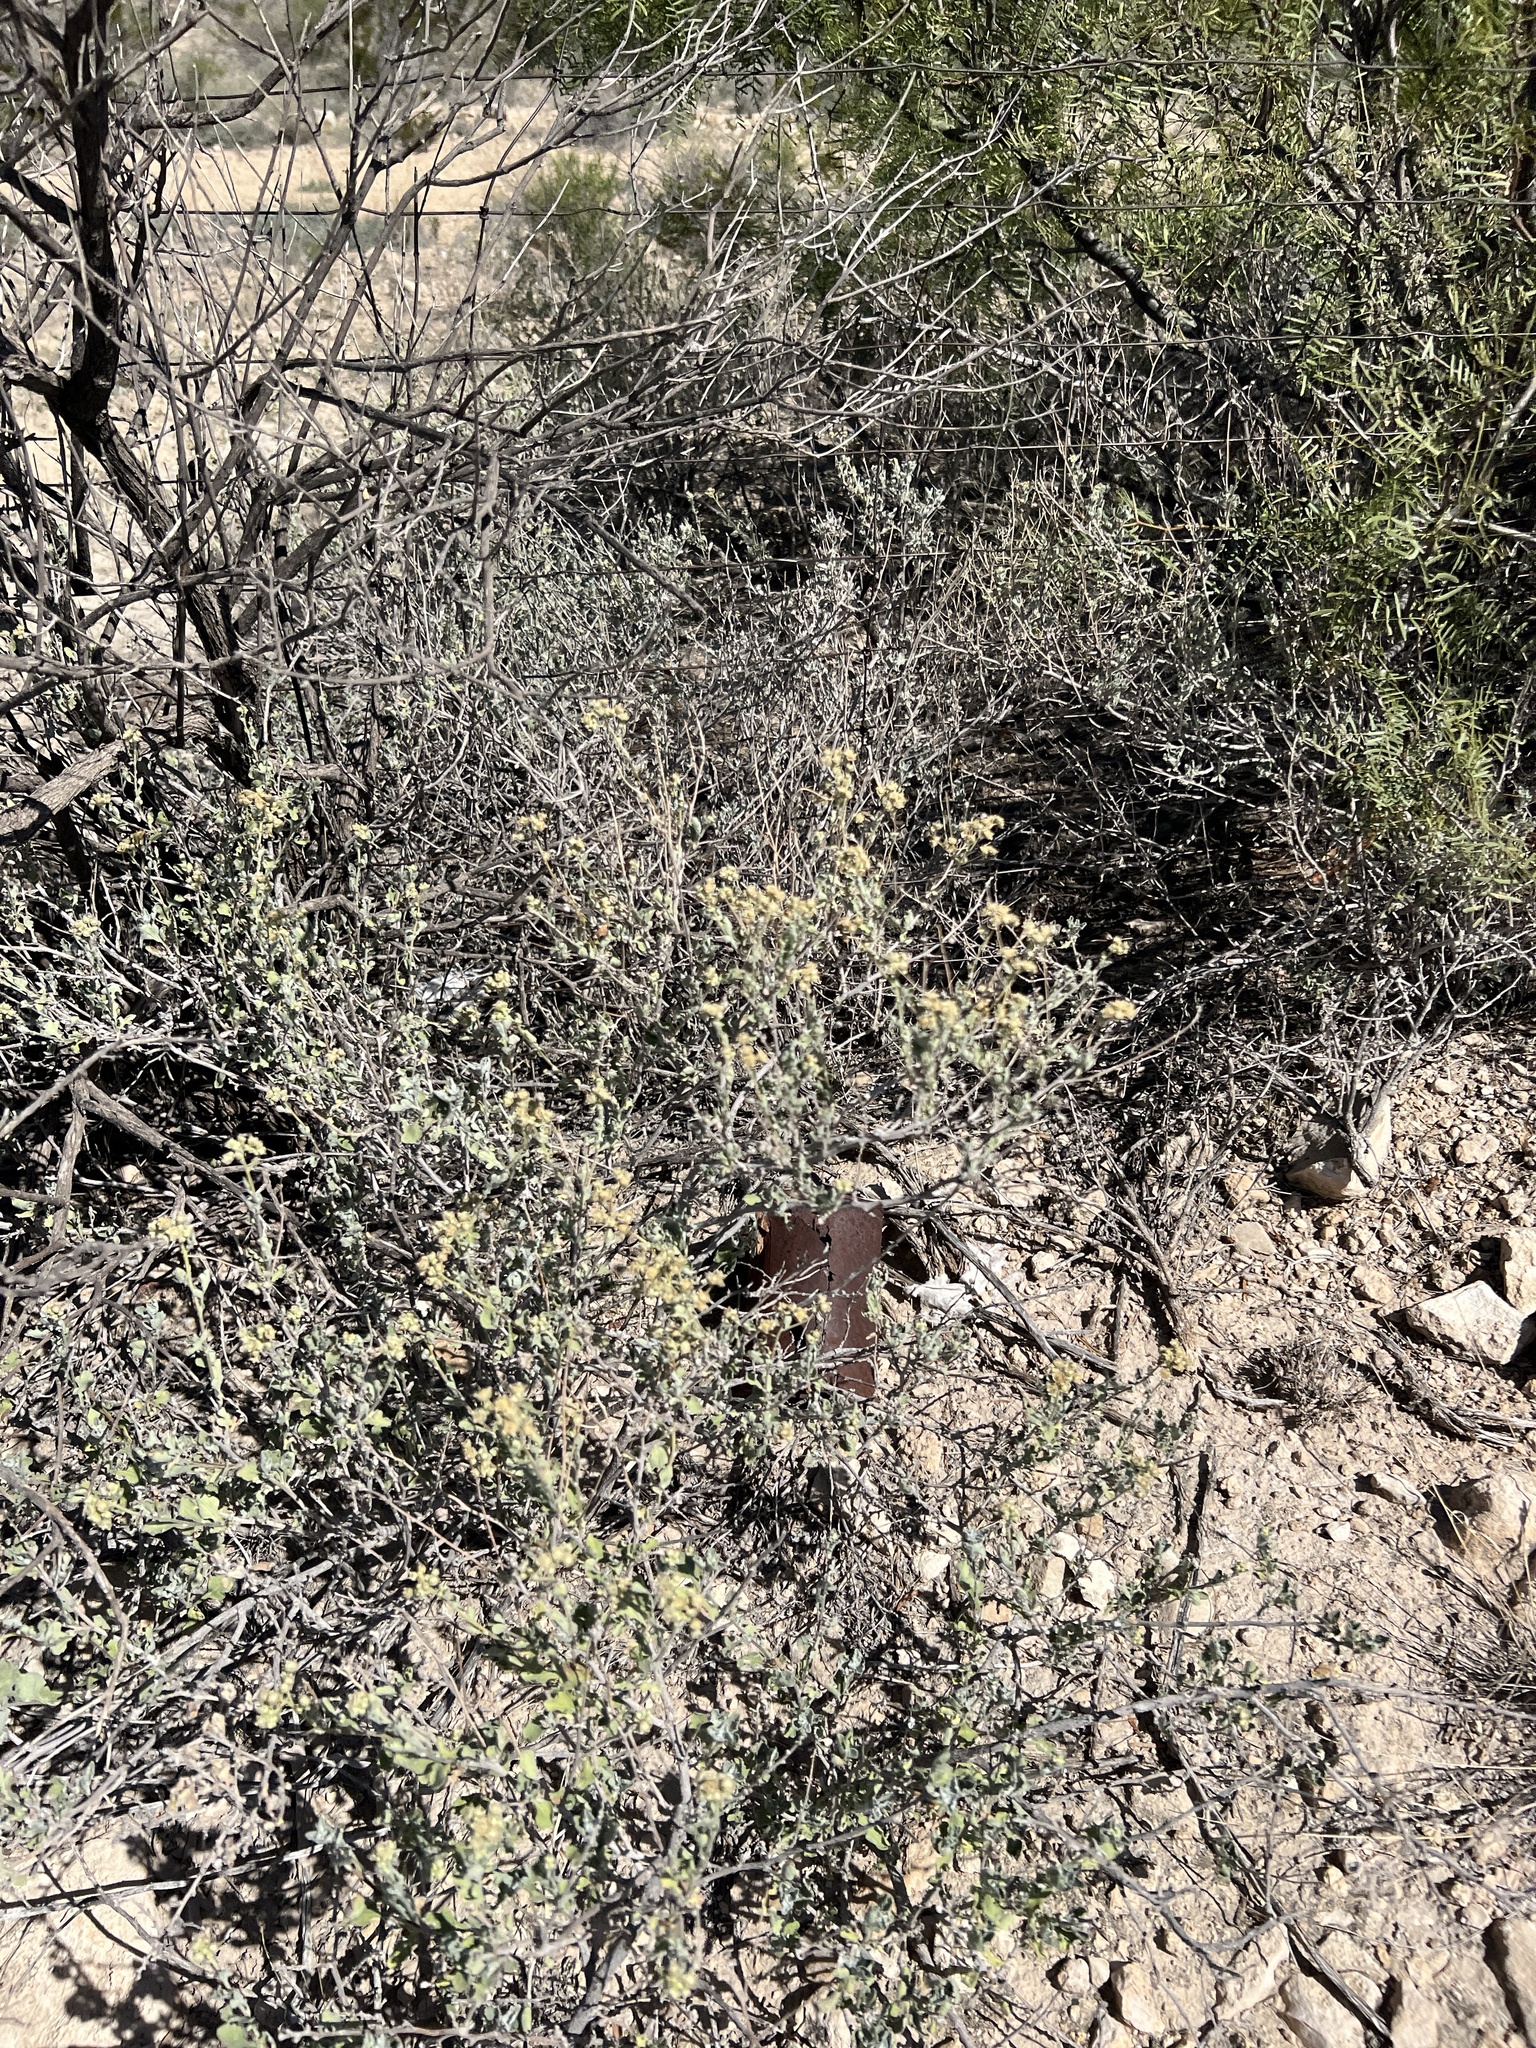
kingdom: Plantae
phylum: Tracheophyta
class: Magnoliopsida
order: Asterales
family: Asteraceae
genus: Parthenium
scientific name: Parthenium incanum
